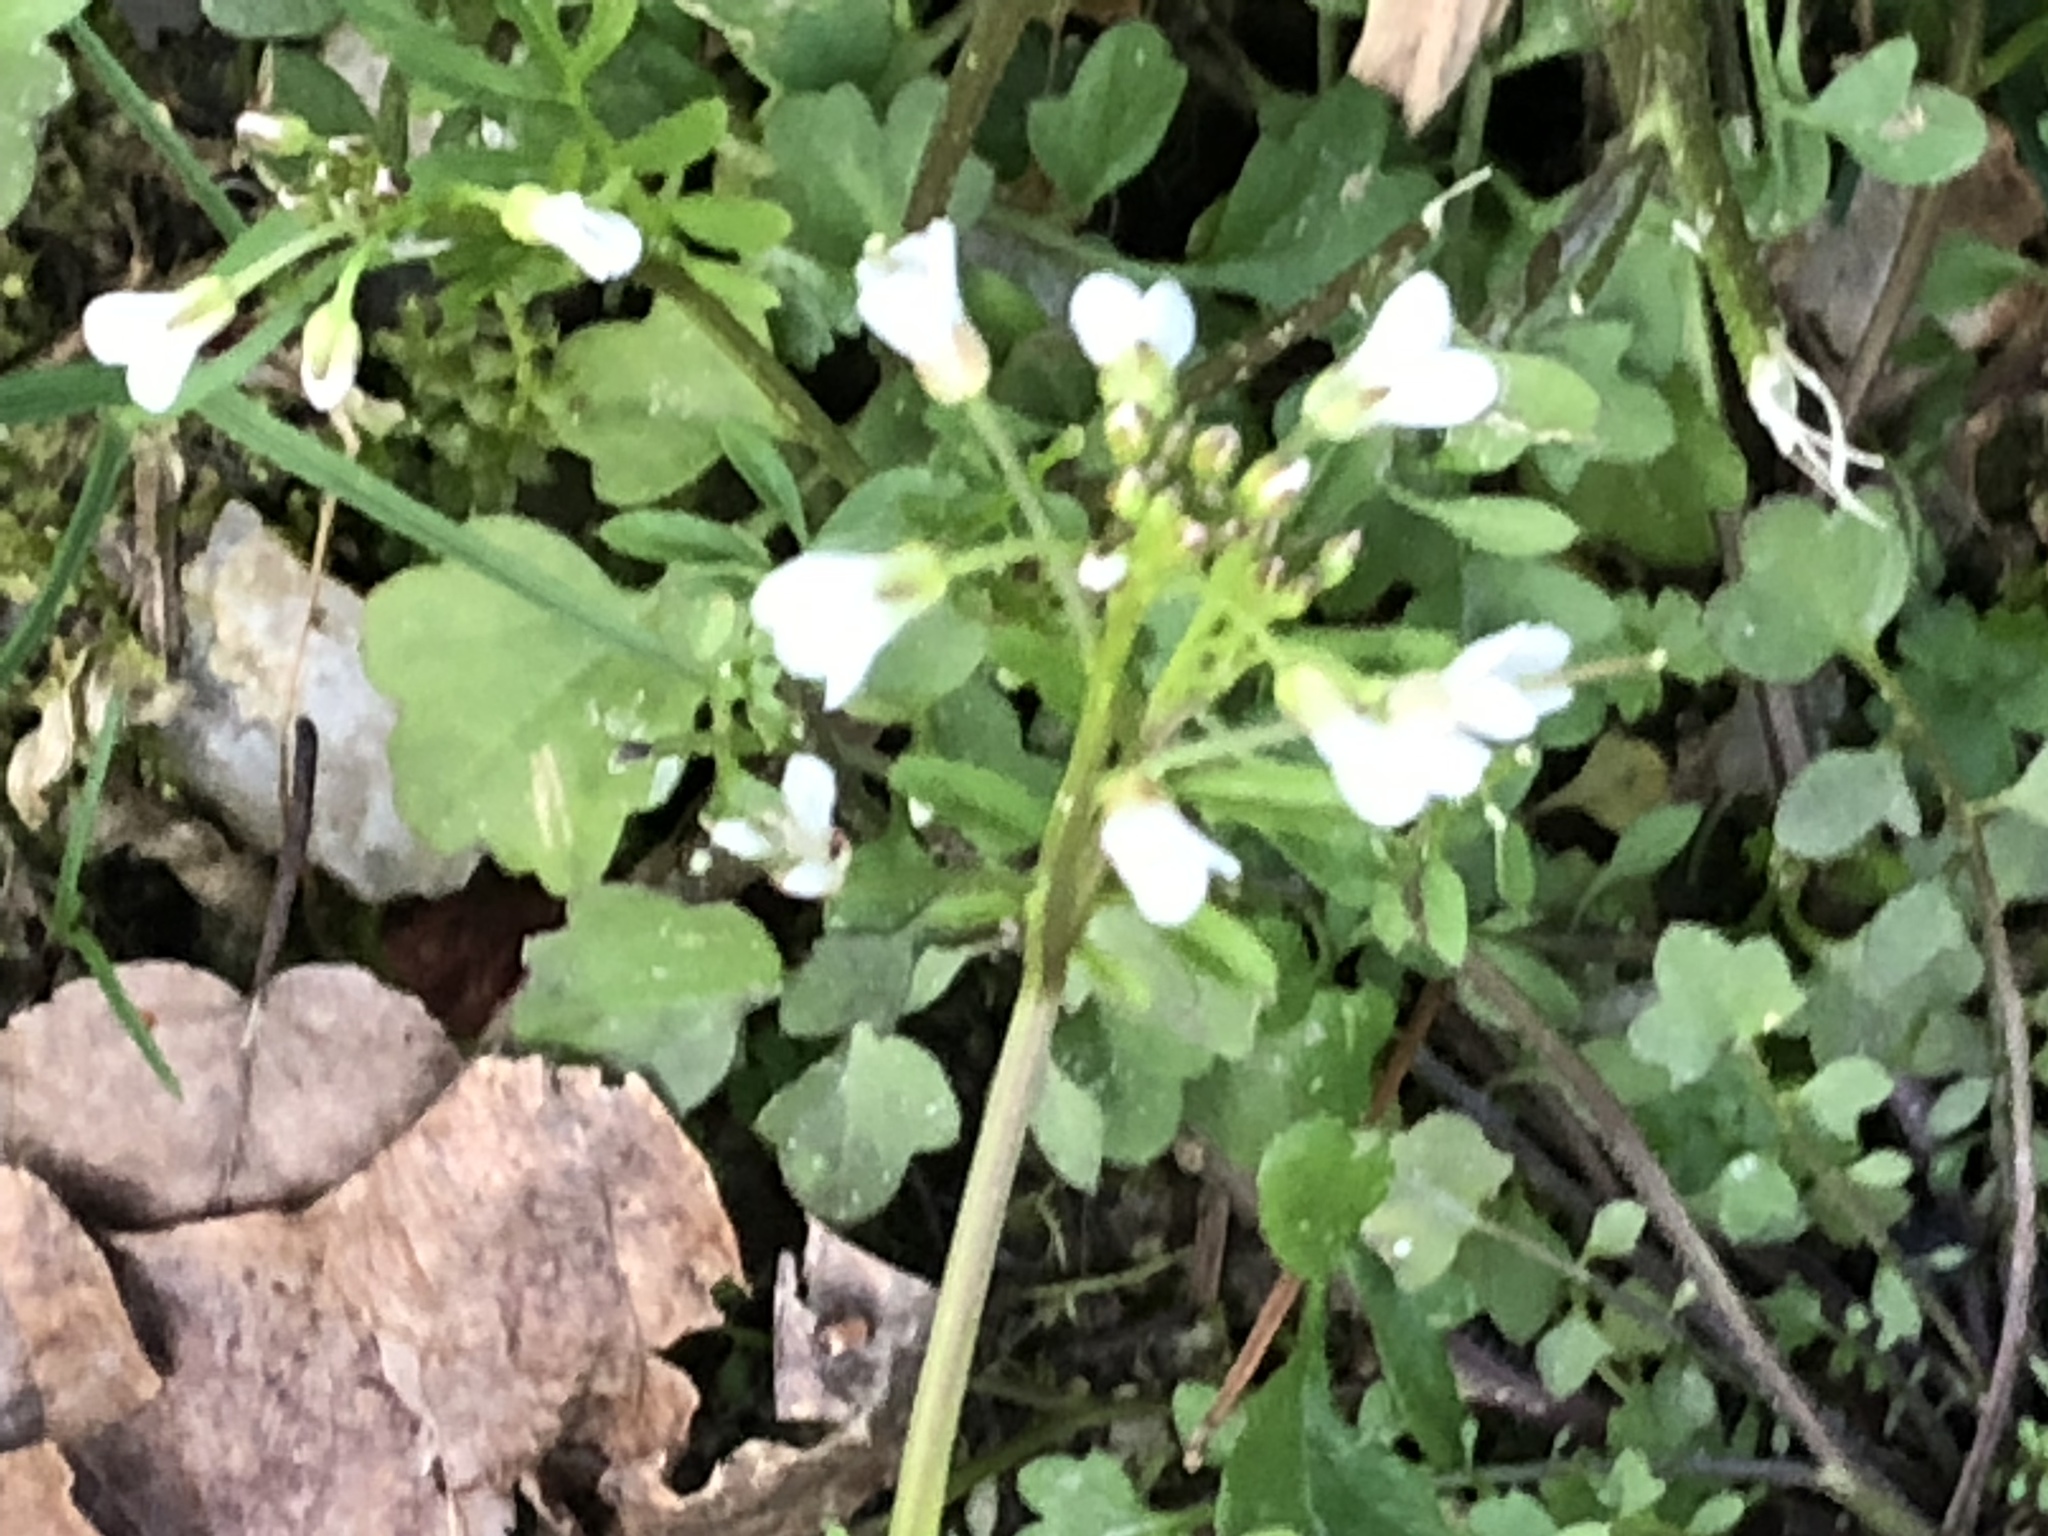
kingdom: Plantae
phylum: Tracheophyta
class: Magnoliopsida
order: Brassicales
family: Brassicaceae
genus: Cardamine
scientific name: Cardamine occulta
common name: Asian wavy bittercress
